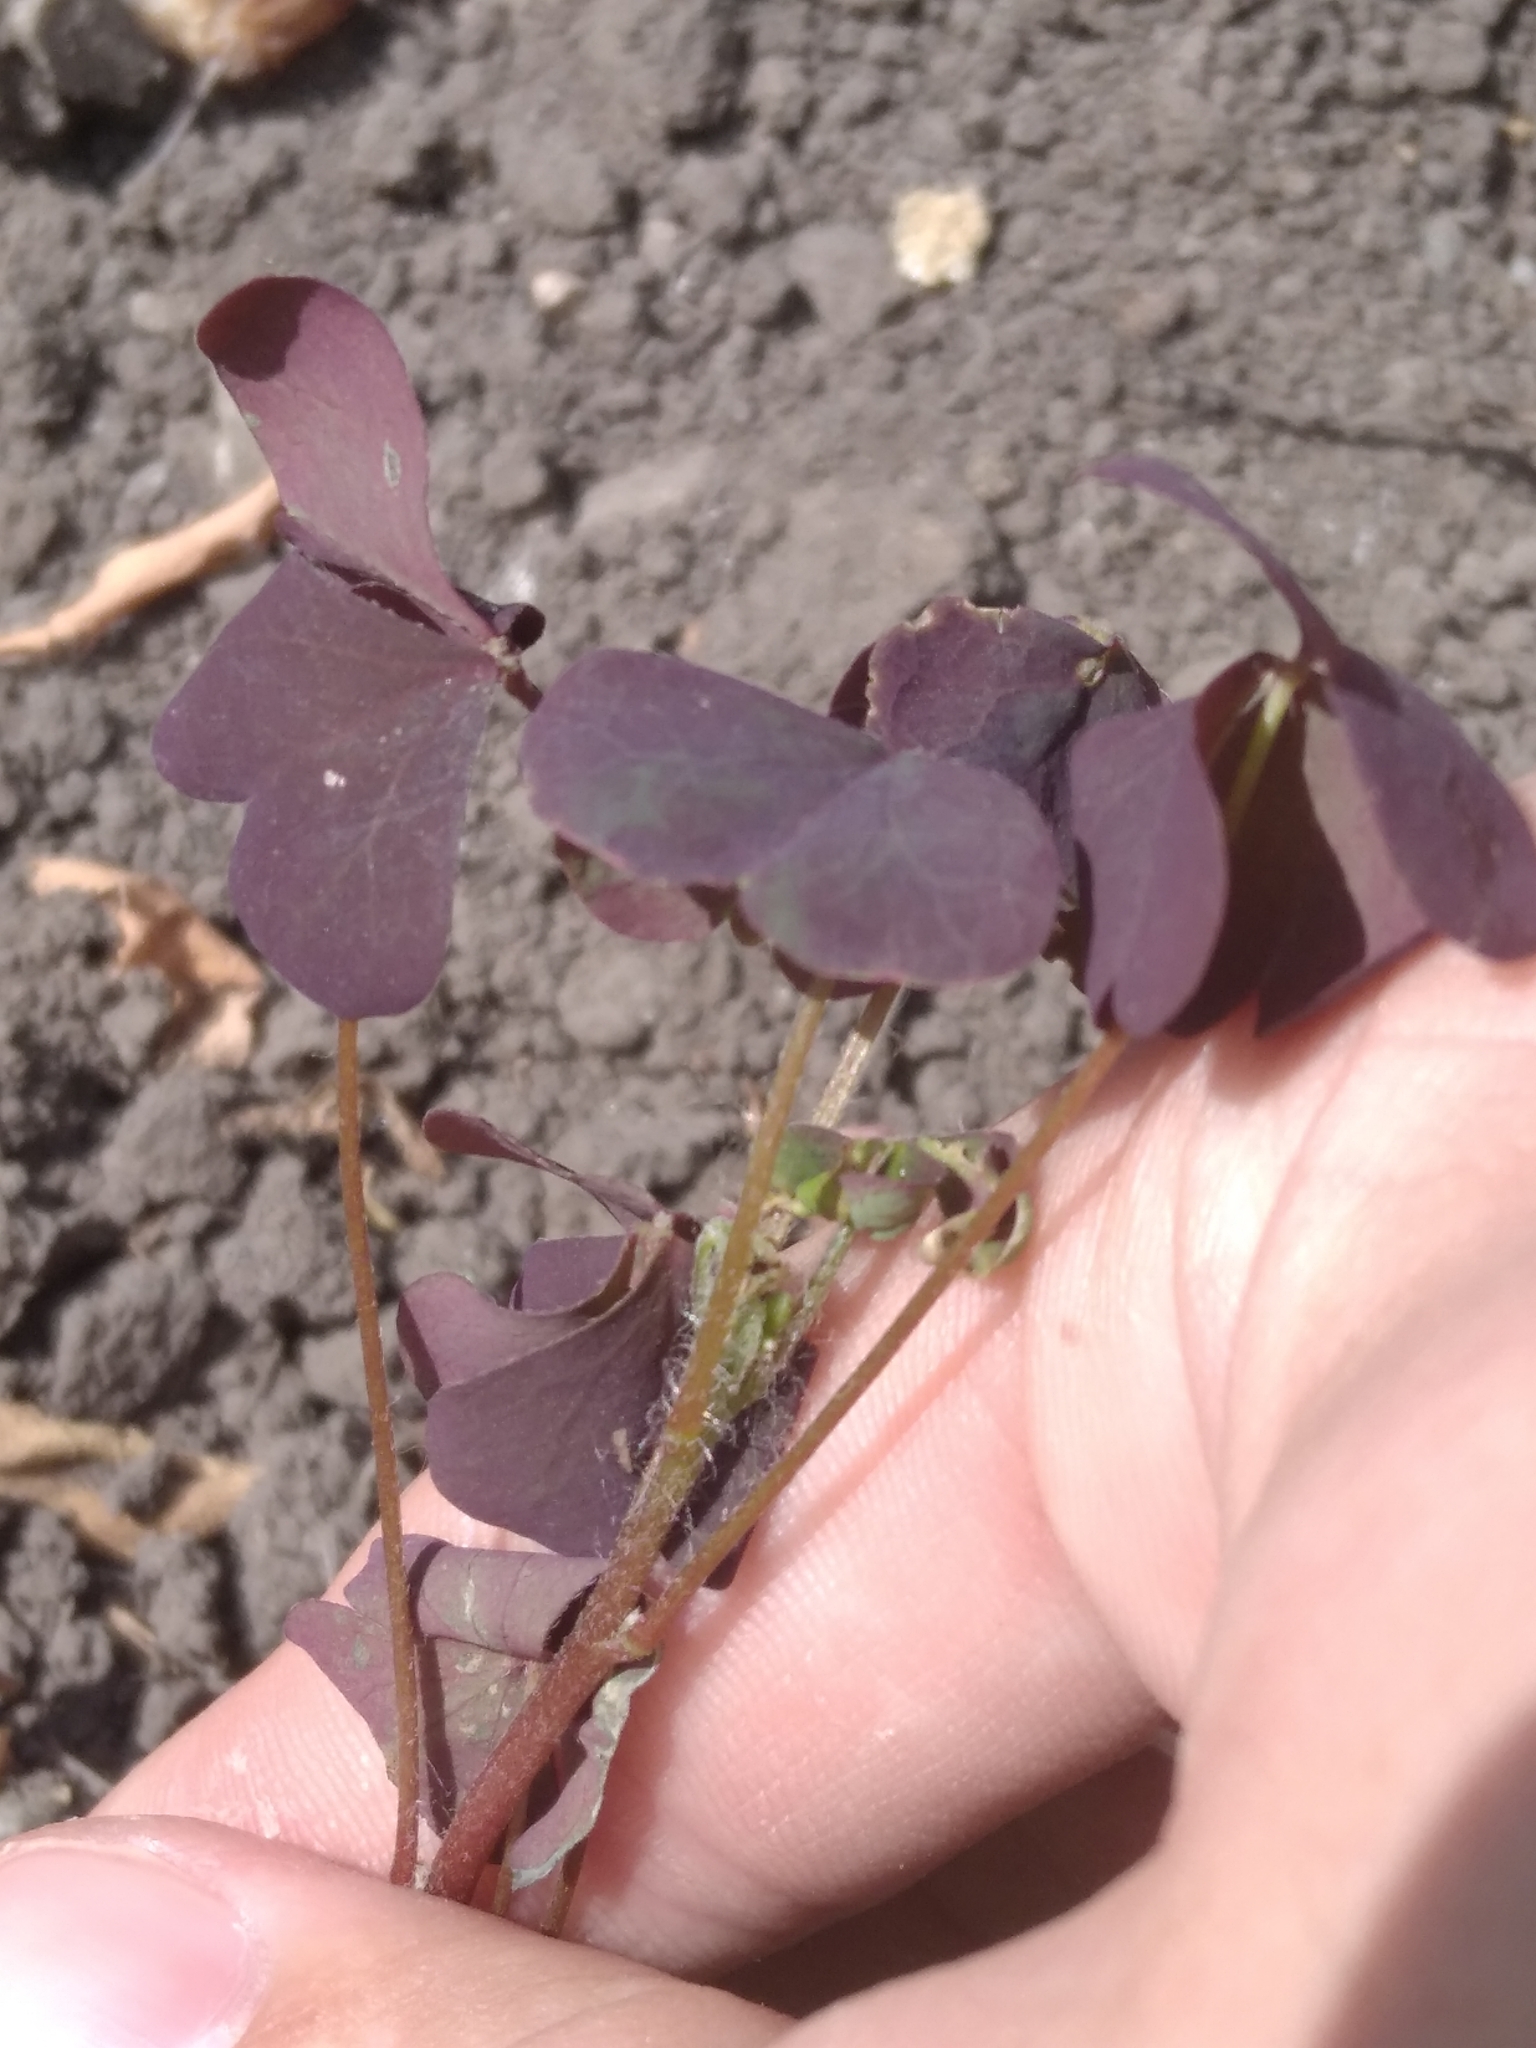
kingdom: Plantae
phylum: Tracheophyta
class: Magnoliopsida
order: Oxalidales
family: Oxalidaceae
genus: Oxalis
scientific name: Oxalis stricta
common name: Upright yellow-sorrel
